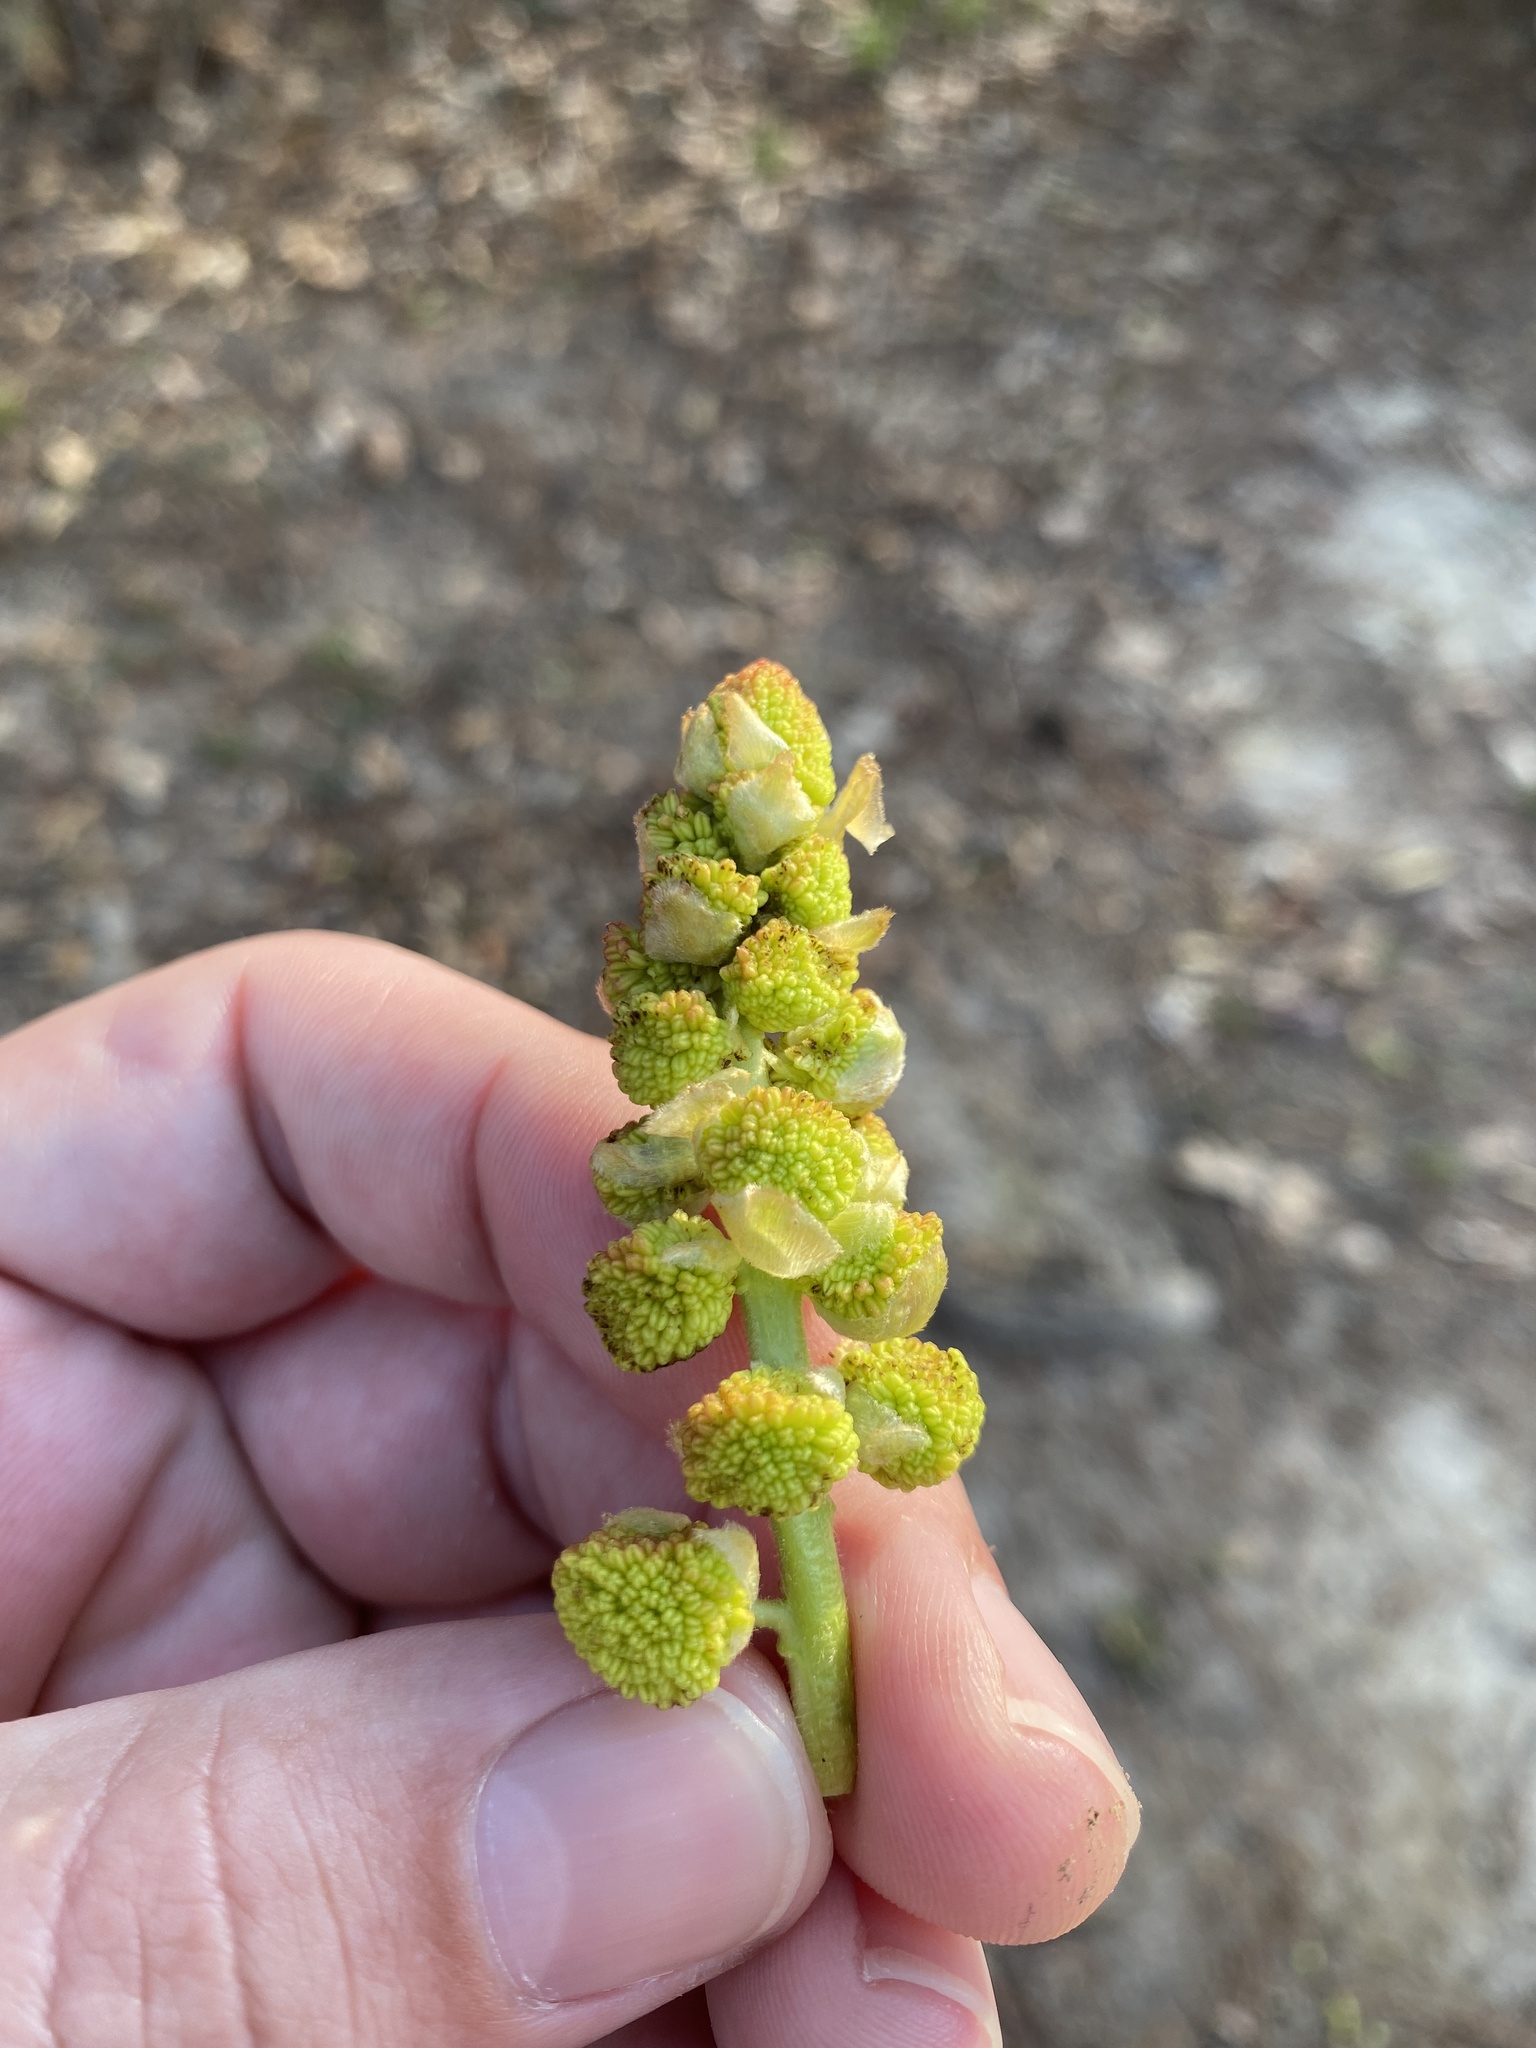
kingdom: Plantae
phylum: Tracheophyta
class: Magnoliopsida
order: Saxifragales
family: Altingiaceae
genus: Liquidambar
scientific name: Liquidambar styraciflua
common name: Sweet gum
